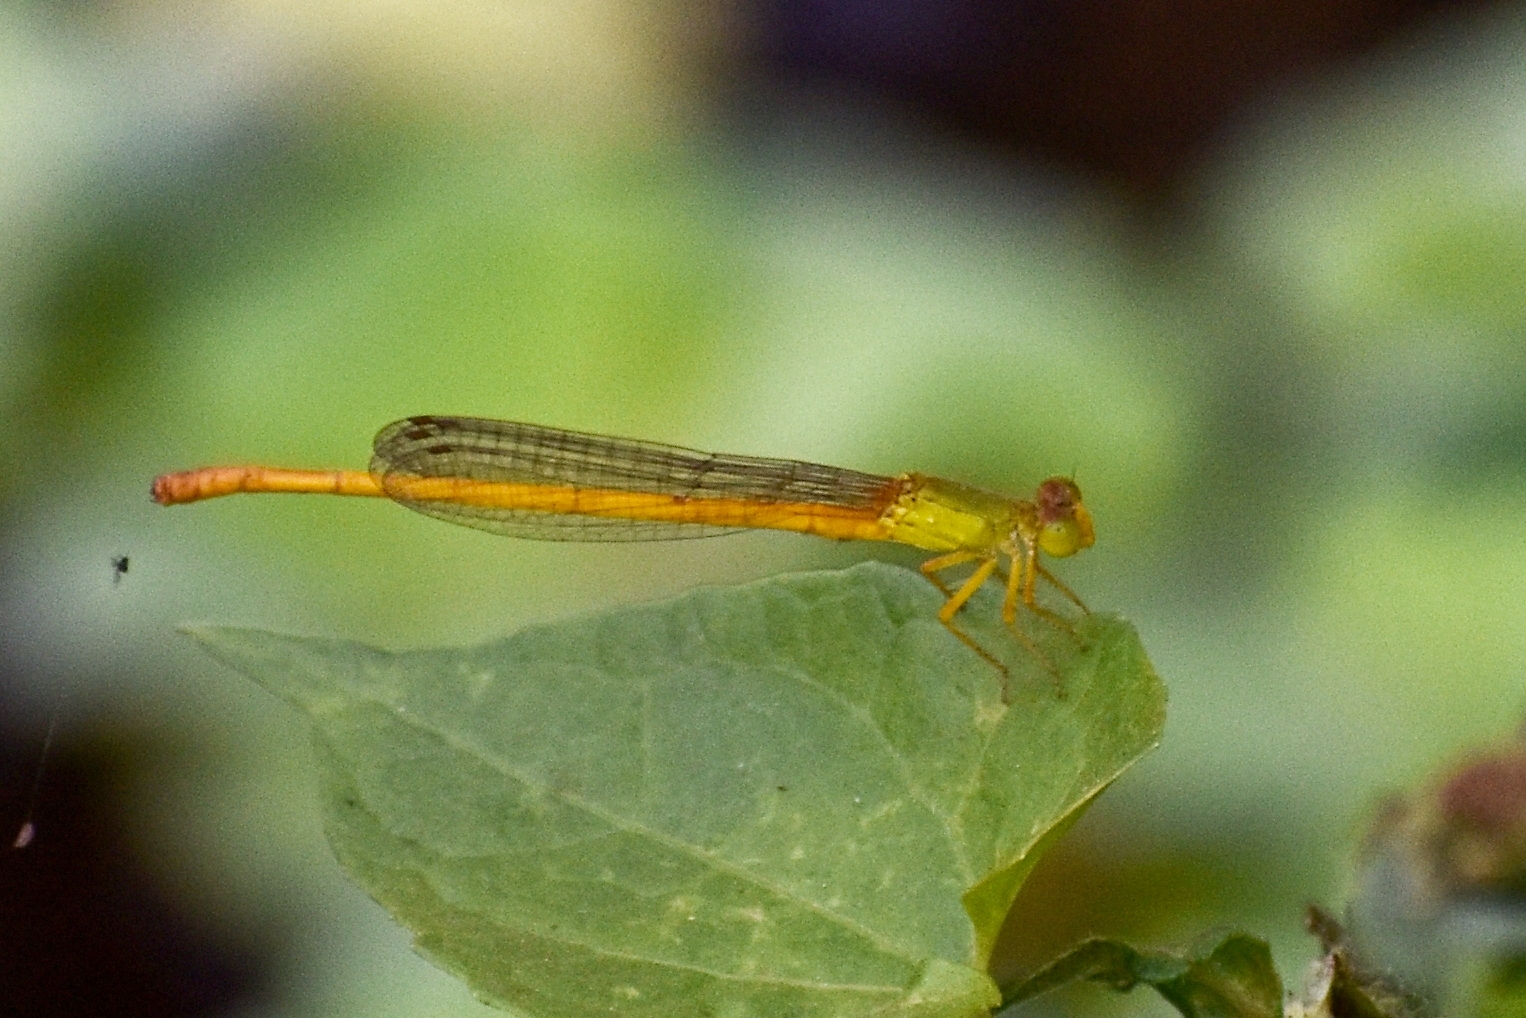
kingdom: Animalia
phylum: Arthropoda
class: Insecta
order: Odonata
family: Coenagrionidae
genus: Ceriagrion
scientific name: Ceriagrion coromandelianum
